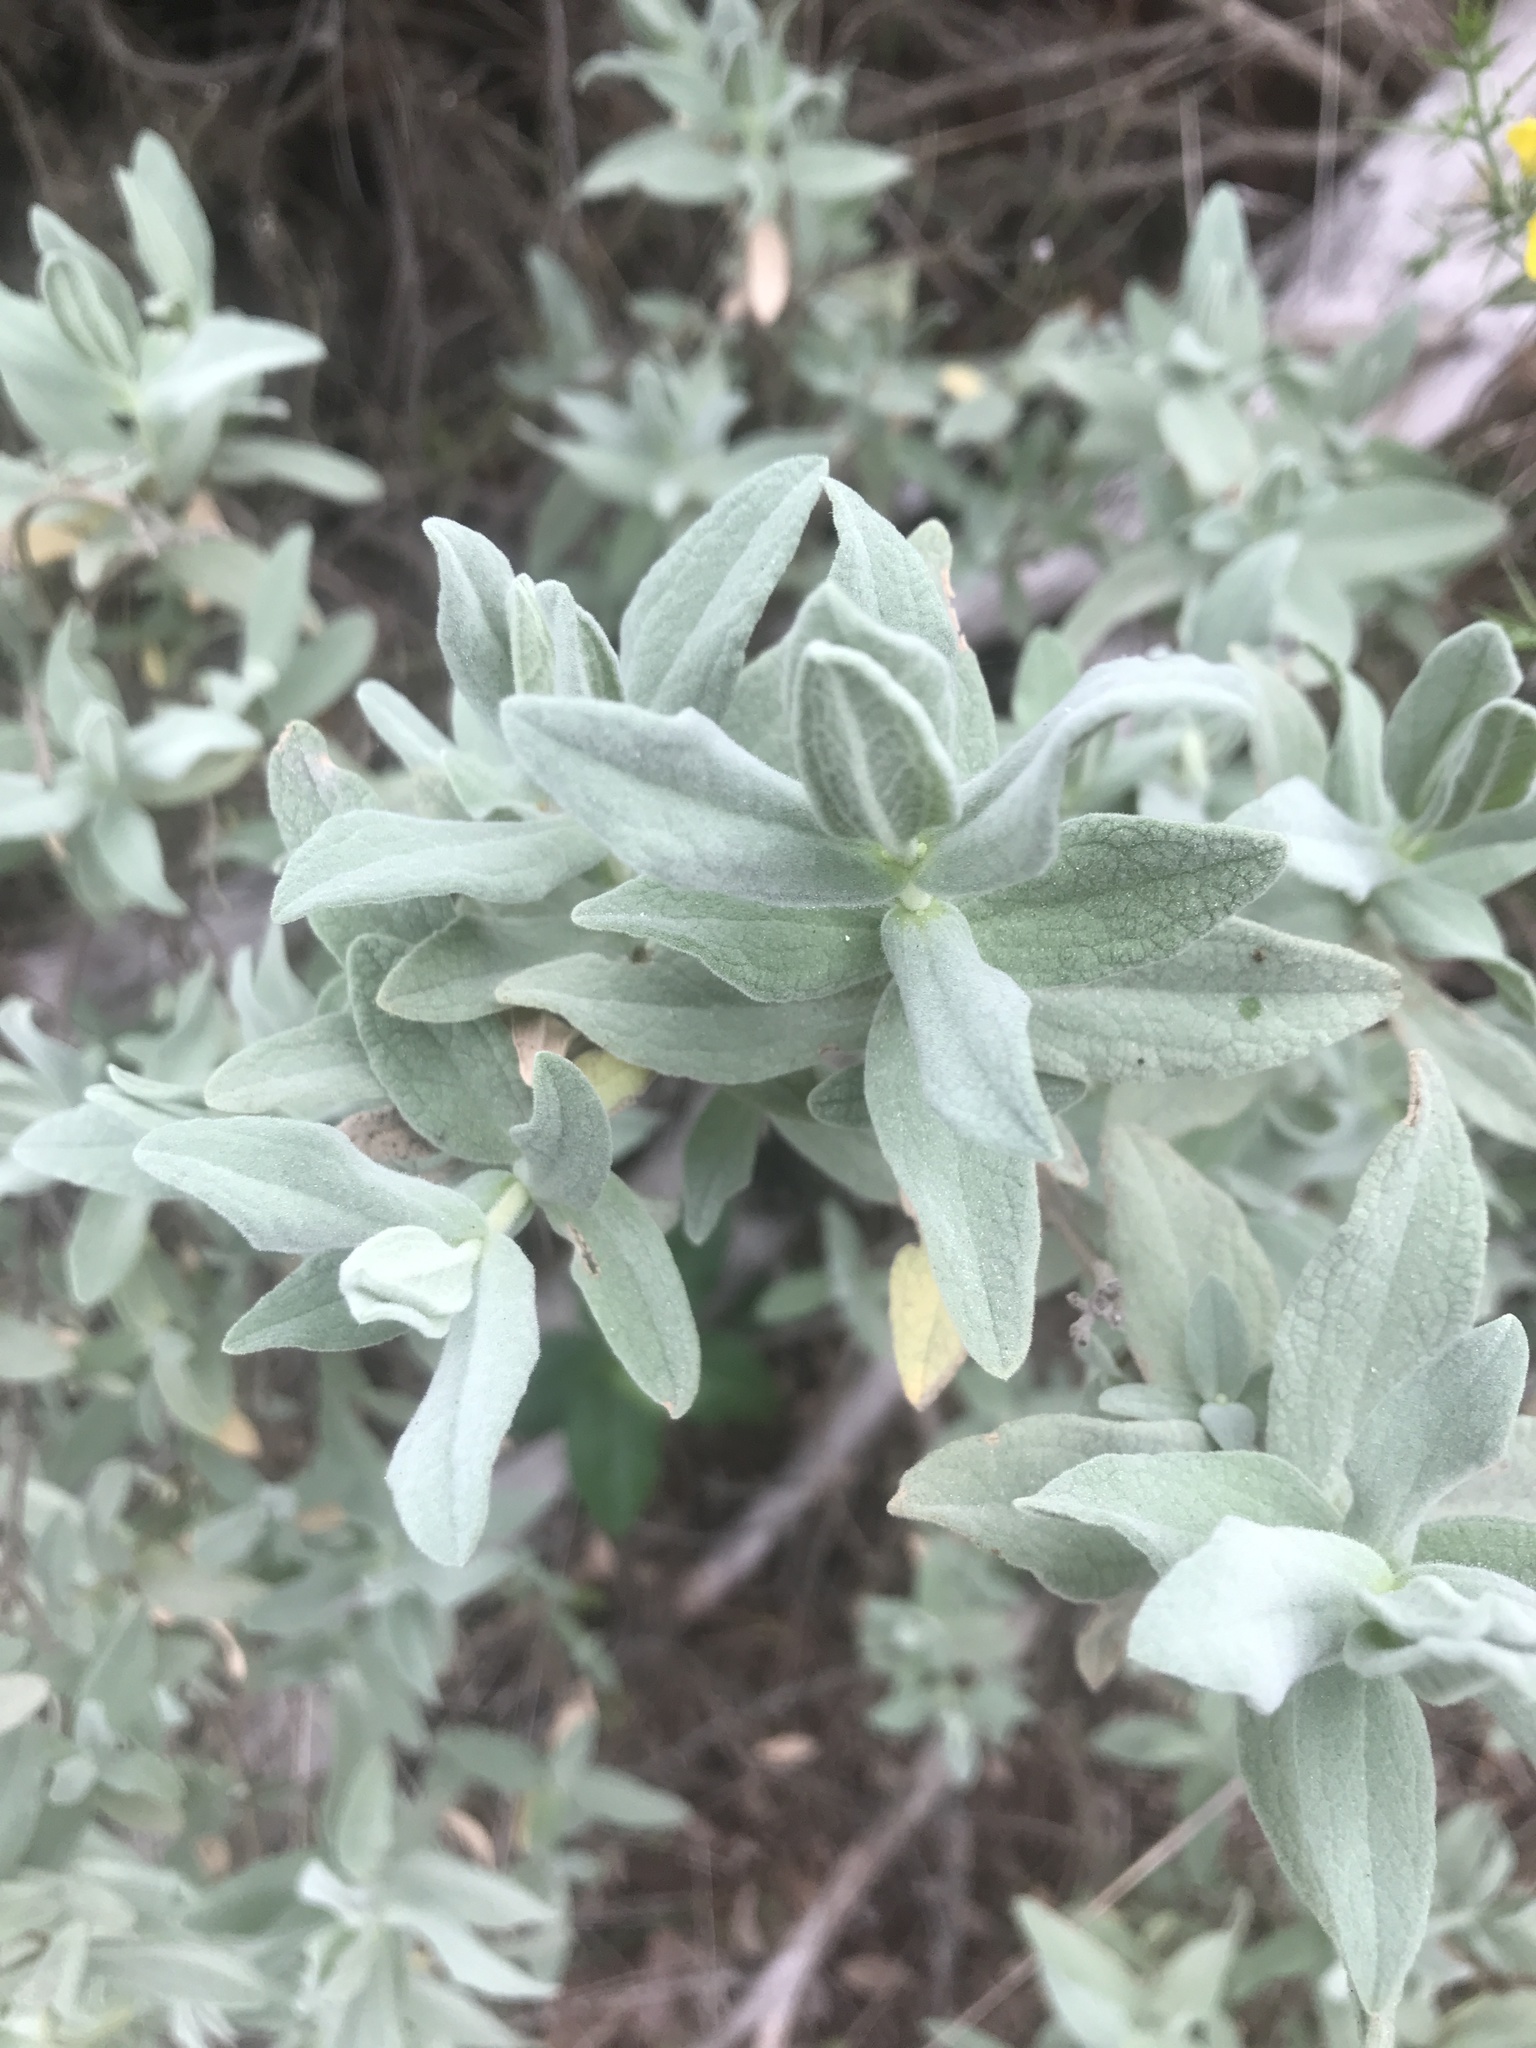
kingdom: Plantae
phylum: Tracheophyta
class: Magnoliopsida
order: Malvales
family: Cistaceae
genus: Cistus
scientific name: Cistus albidus
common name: White-leaf rock-rose
